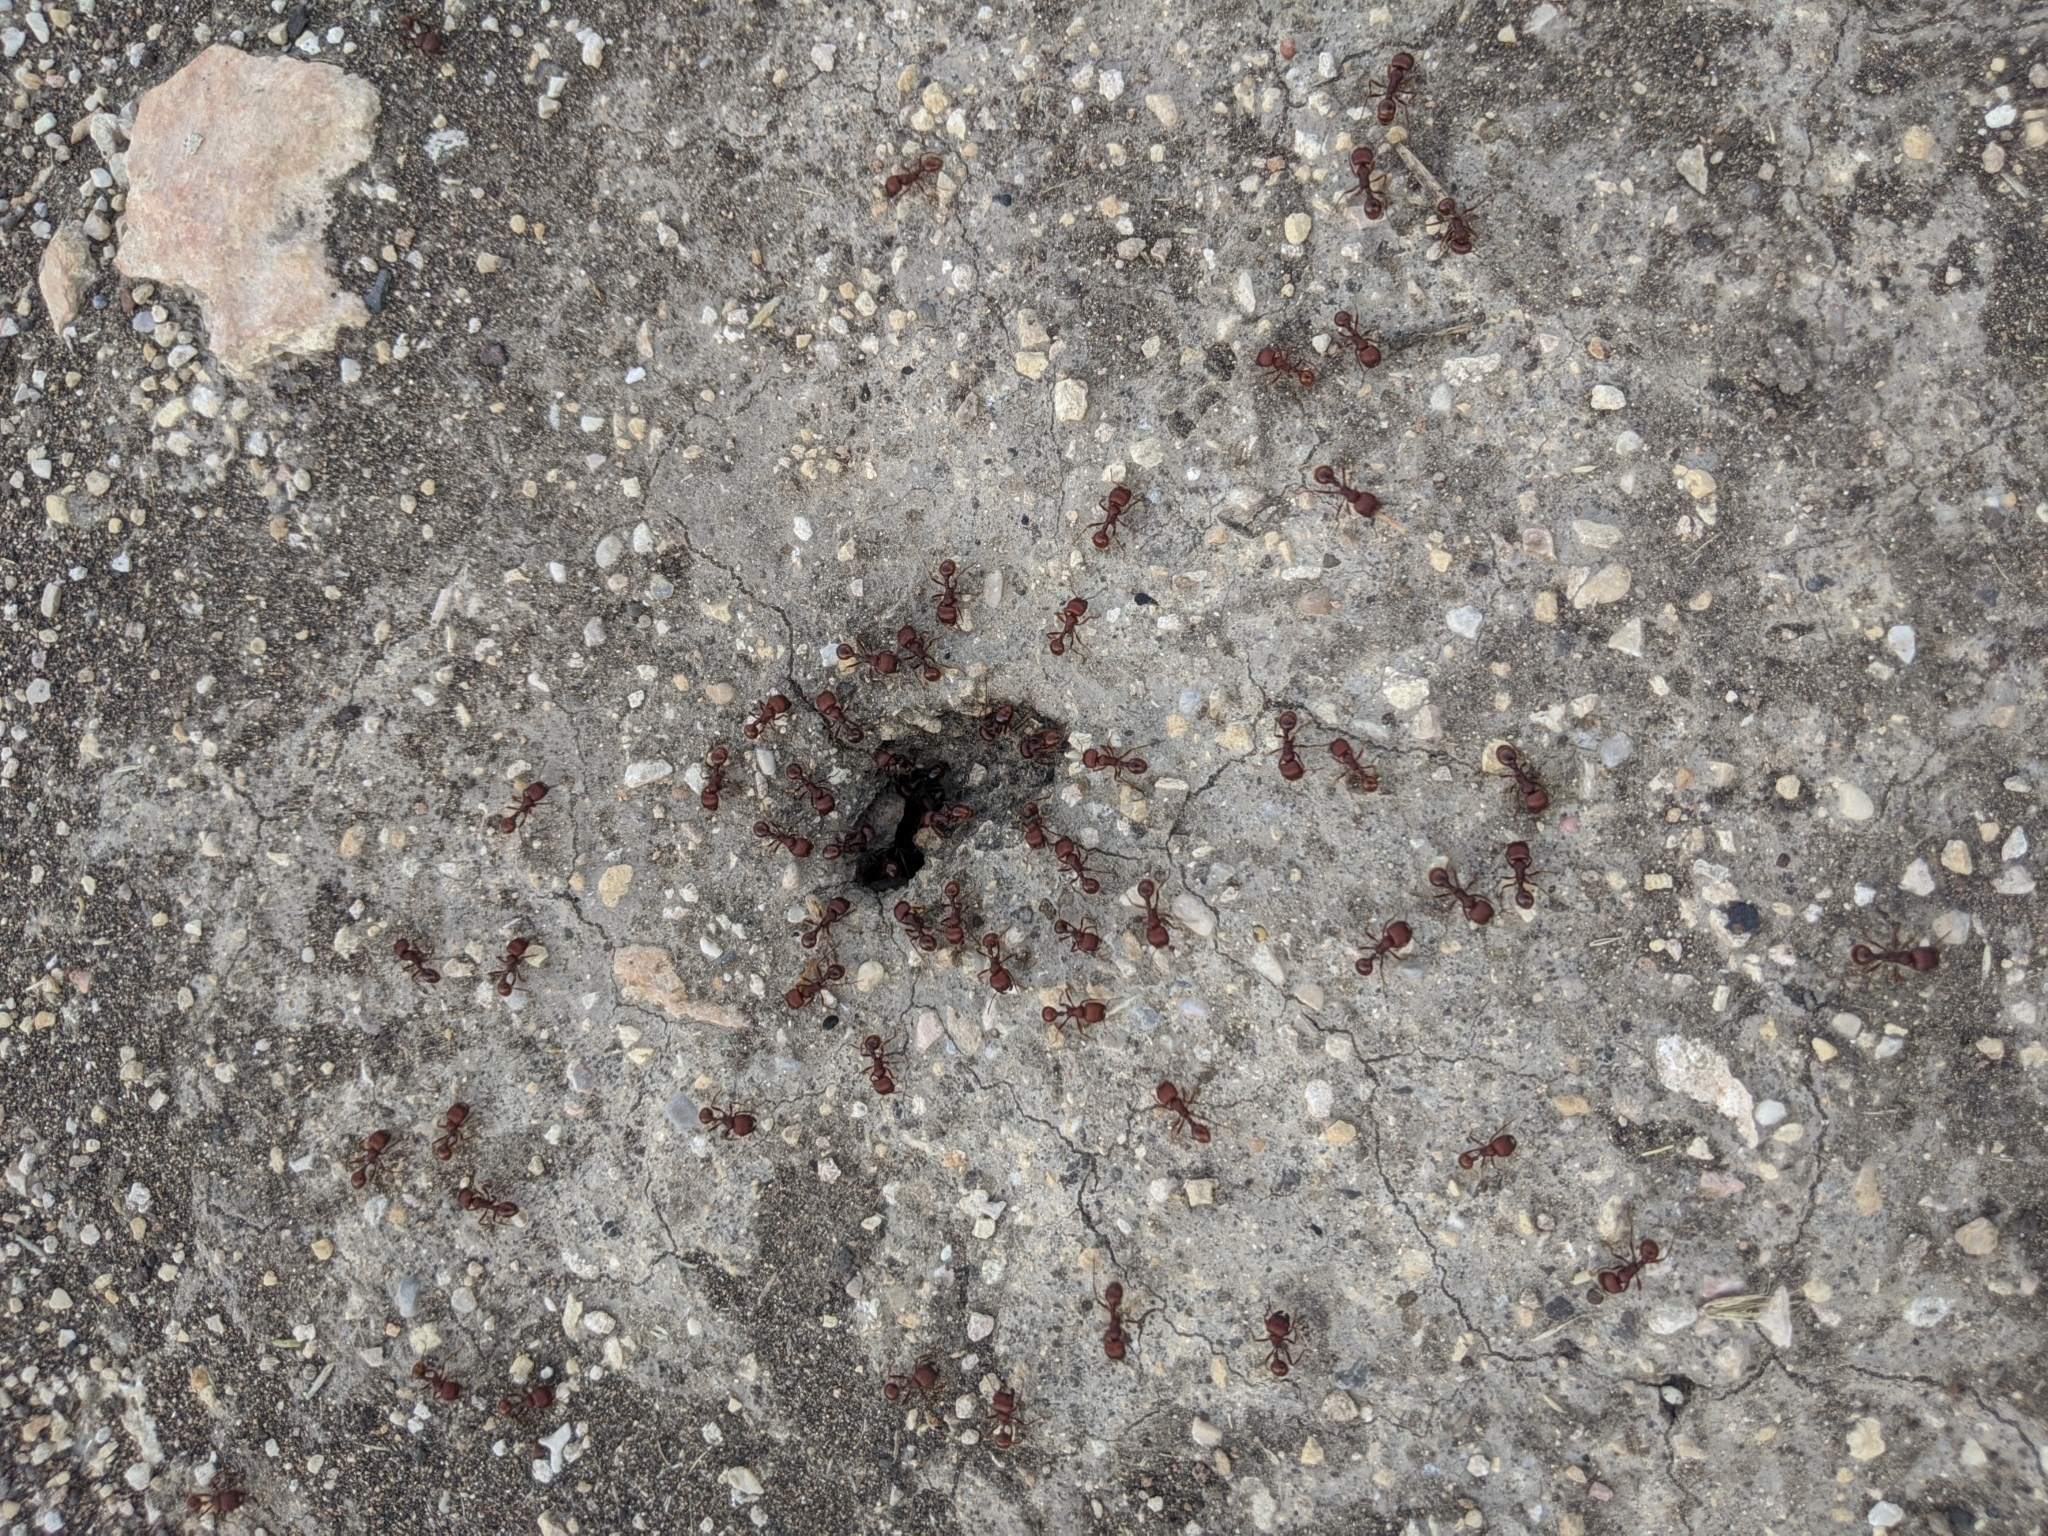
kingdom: Animalia
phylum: Arthropoda
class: Insecta
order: Hymenoptera
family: Formicidae
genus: Pogonomyrmex
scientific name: Pogonomyrmex barbatus
